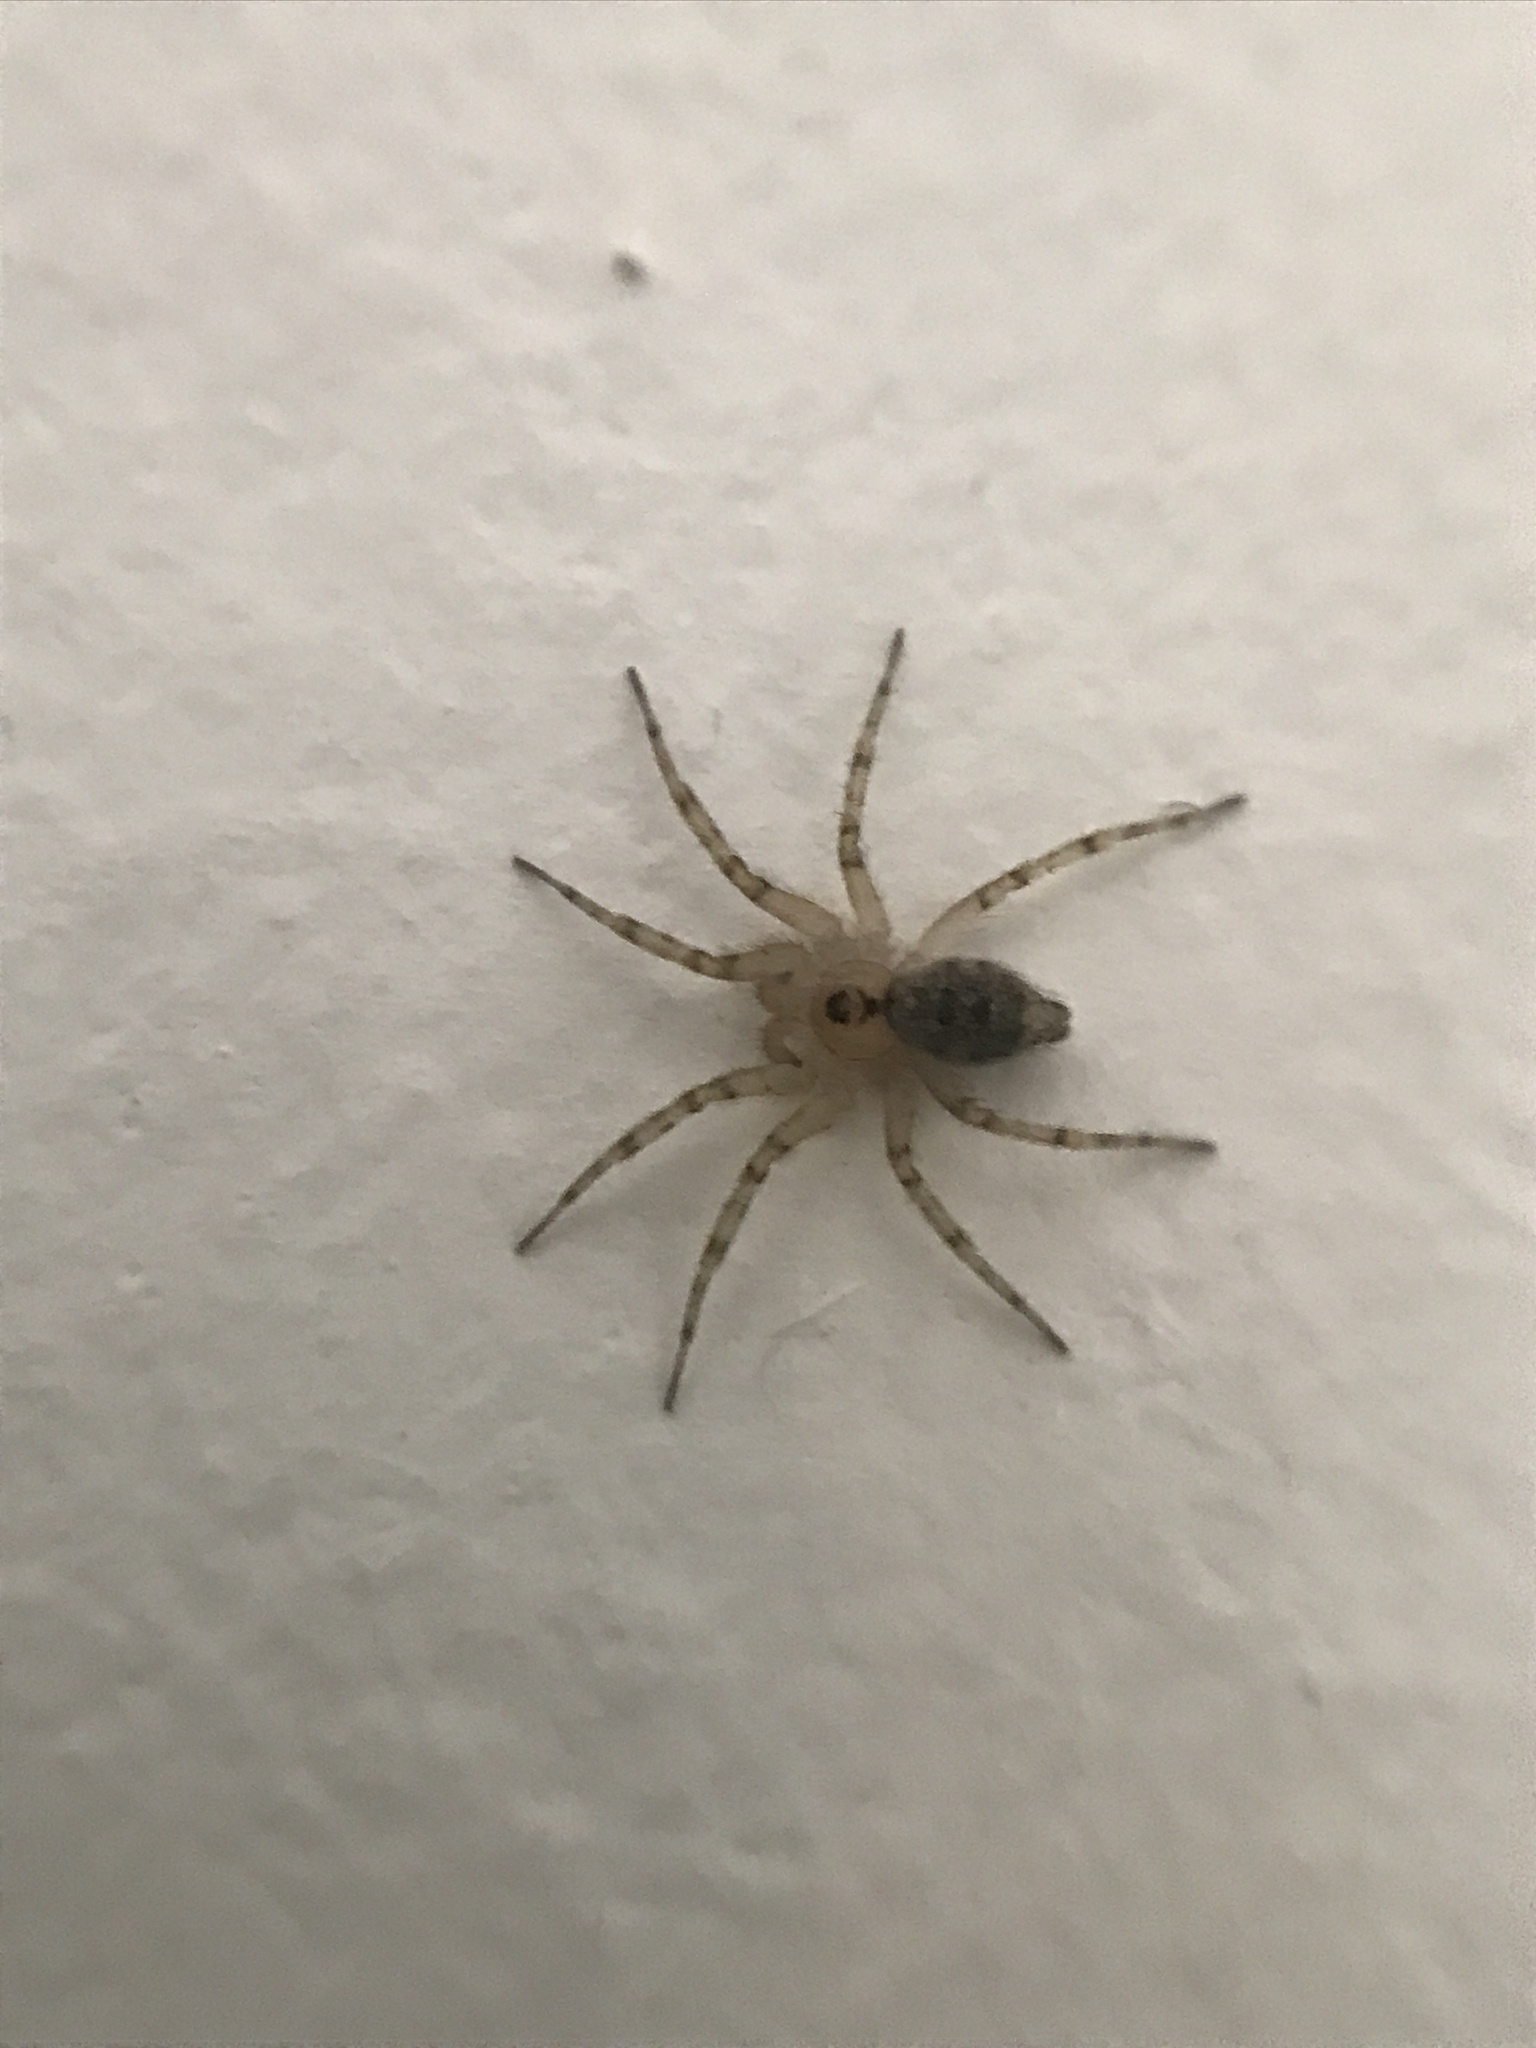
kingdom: Animalia
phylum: Arthropoda
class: Arachnida
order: Araneae
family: Oecobiidae
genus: Oecobius
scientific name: Oecobius navus
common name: Flatmesh weaver
